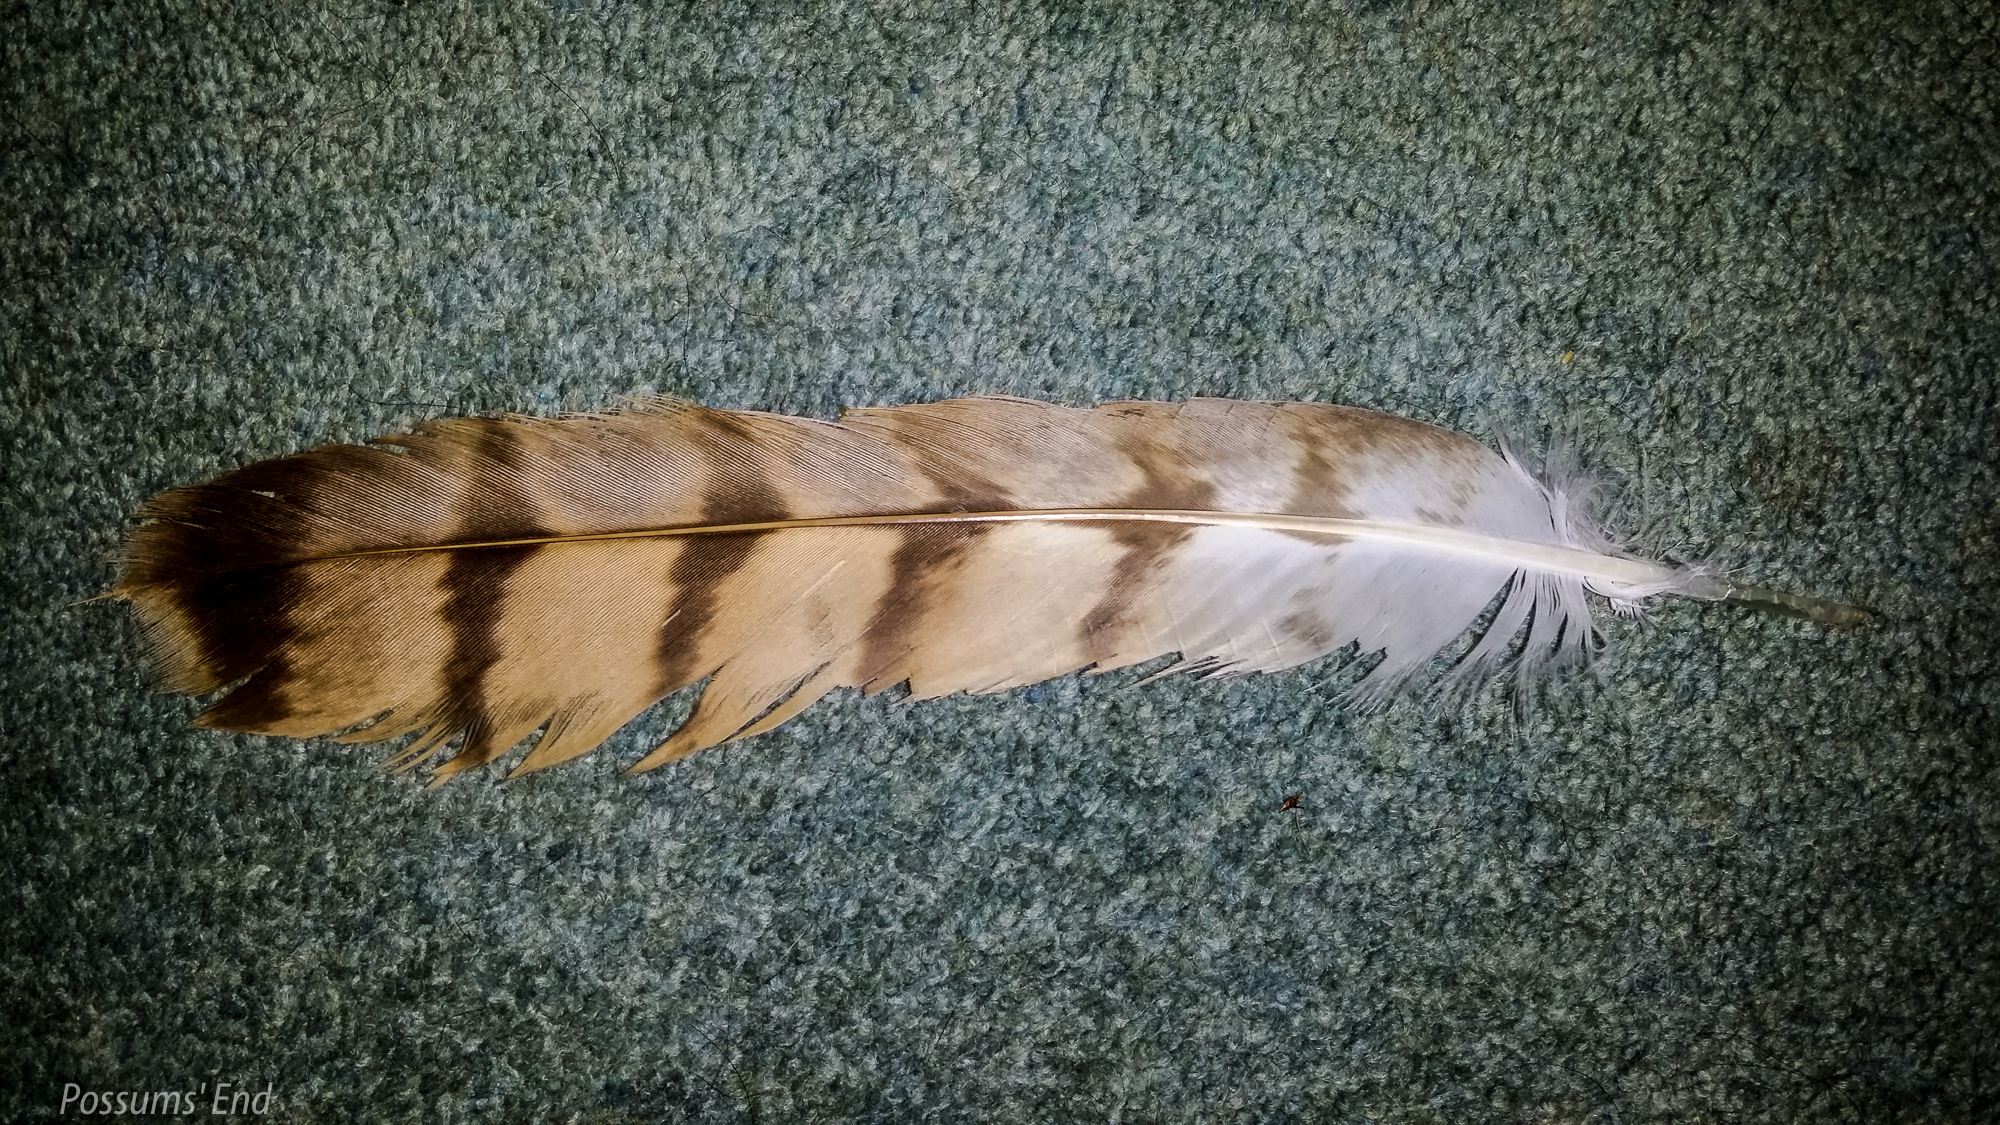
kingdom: Animalia
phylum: Chordata
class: Aves
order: Accipitriformes
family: Accipitridae
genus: Circus
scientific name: Circus approximans
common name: Swamp harrier
